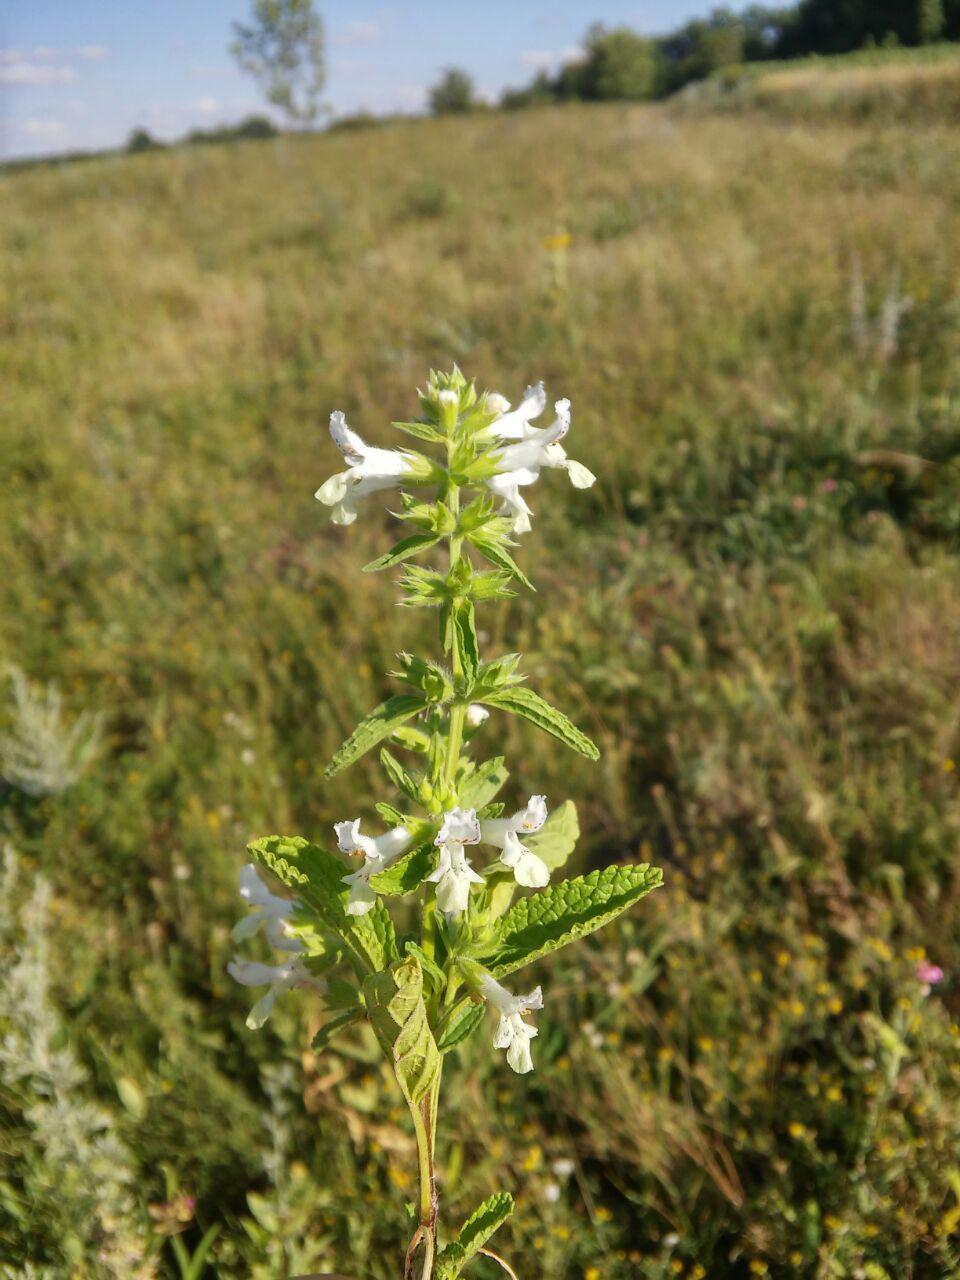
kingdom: Plantae
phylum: Tracheophyta
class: Magnoliopsida
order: Lamiales
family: Lamiaceae
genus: Stachys
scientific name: Stachys annua
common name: Annual yellow-woundwort
